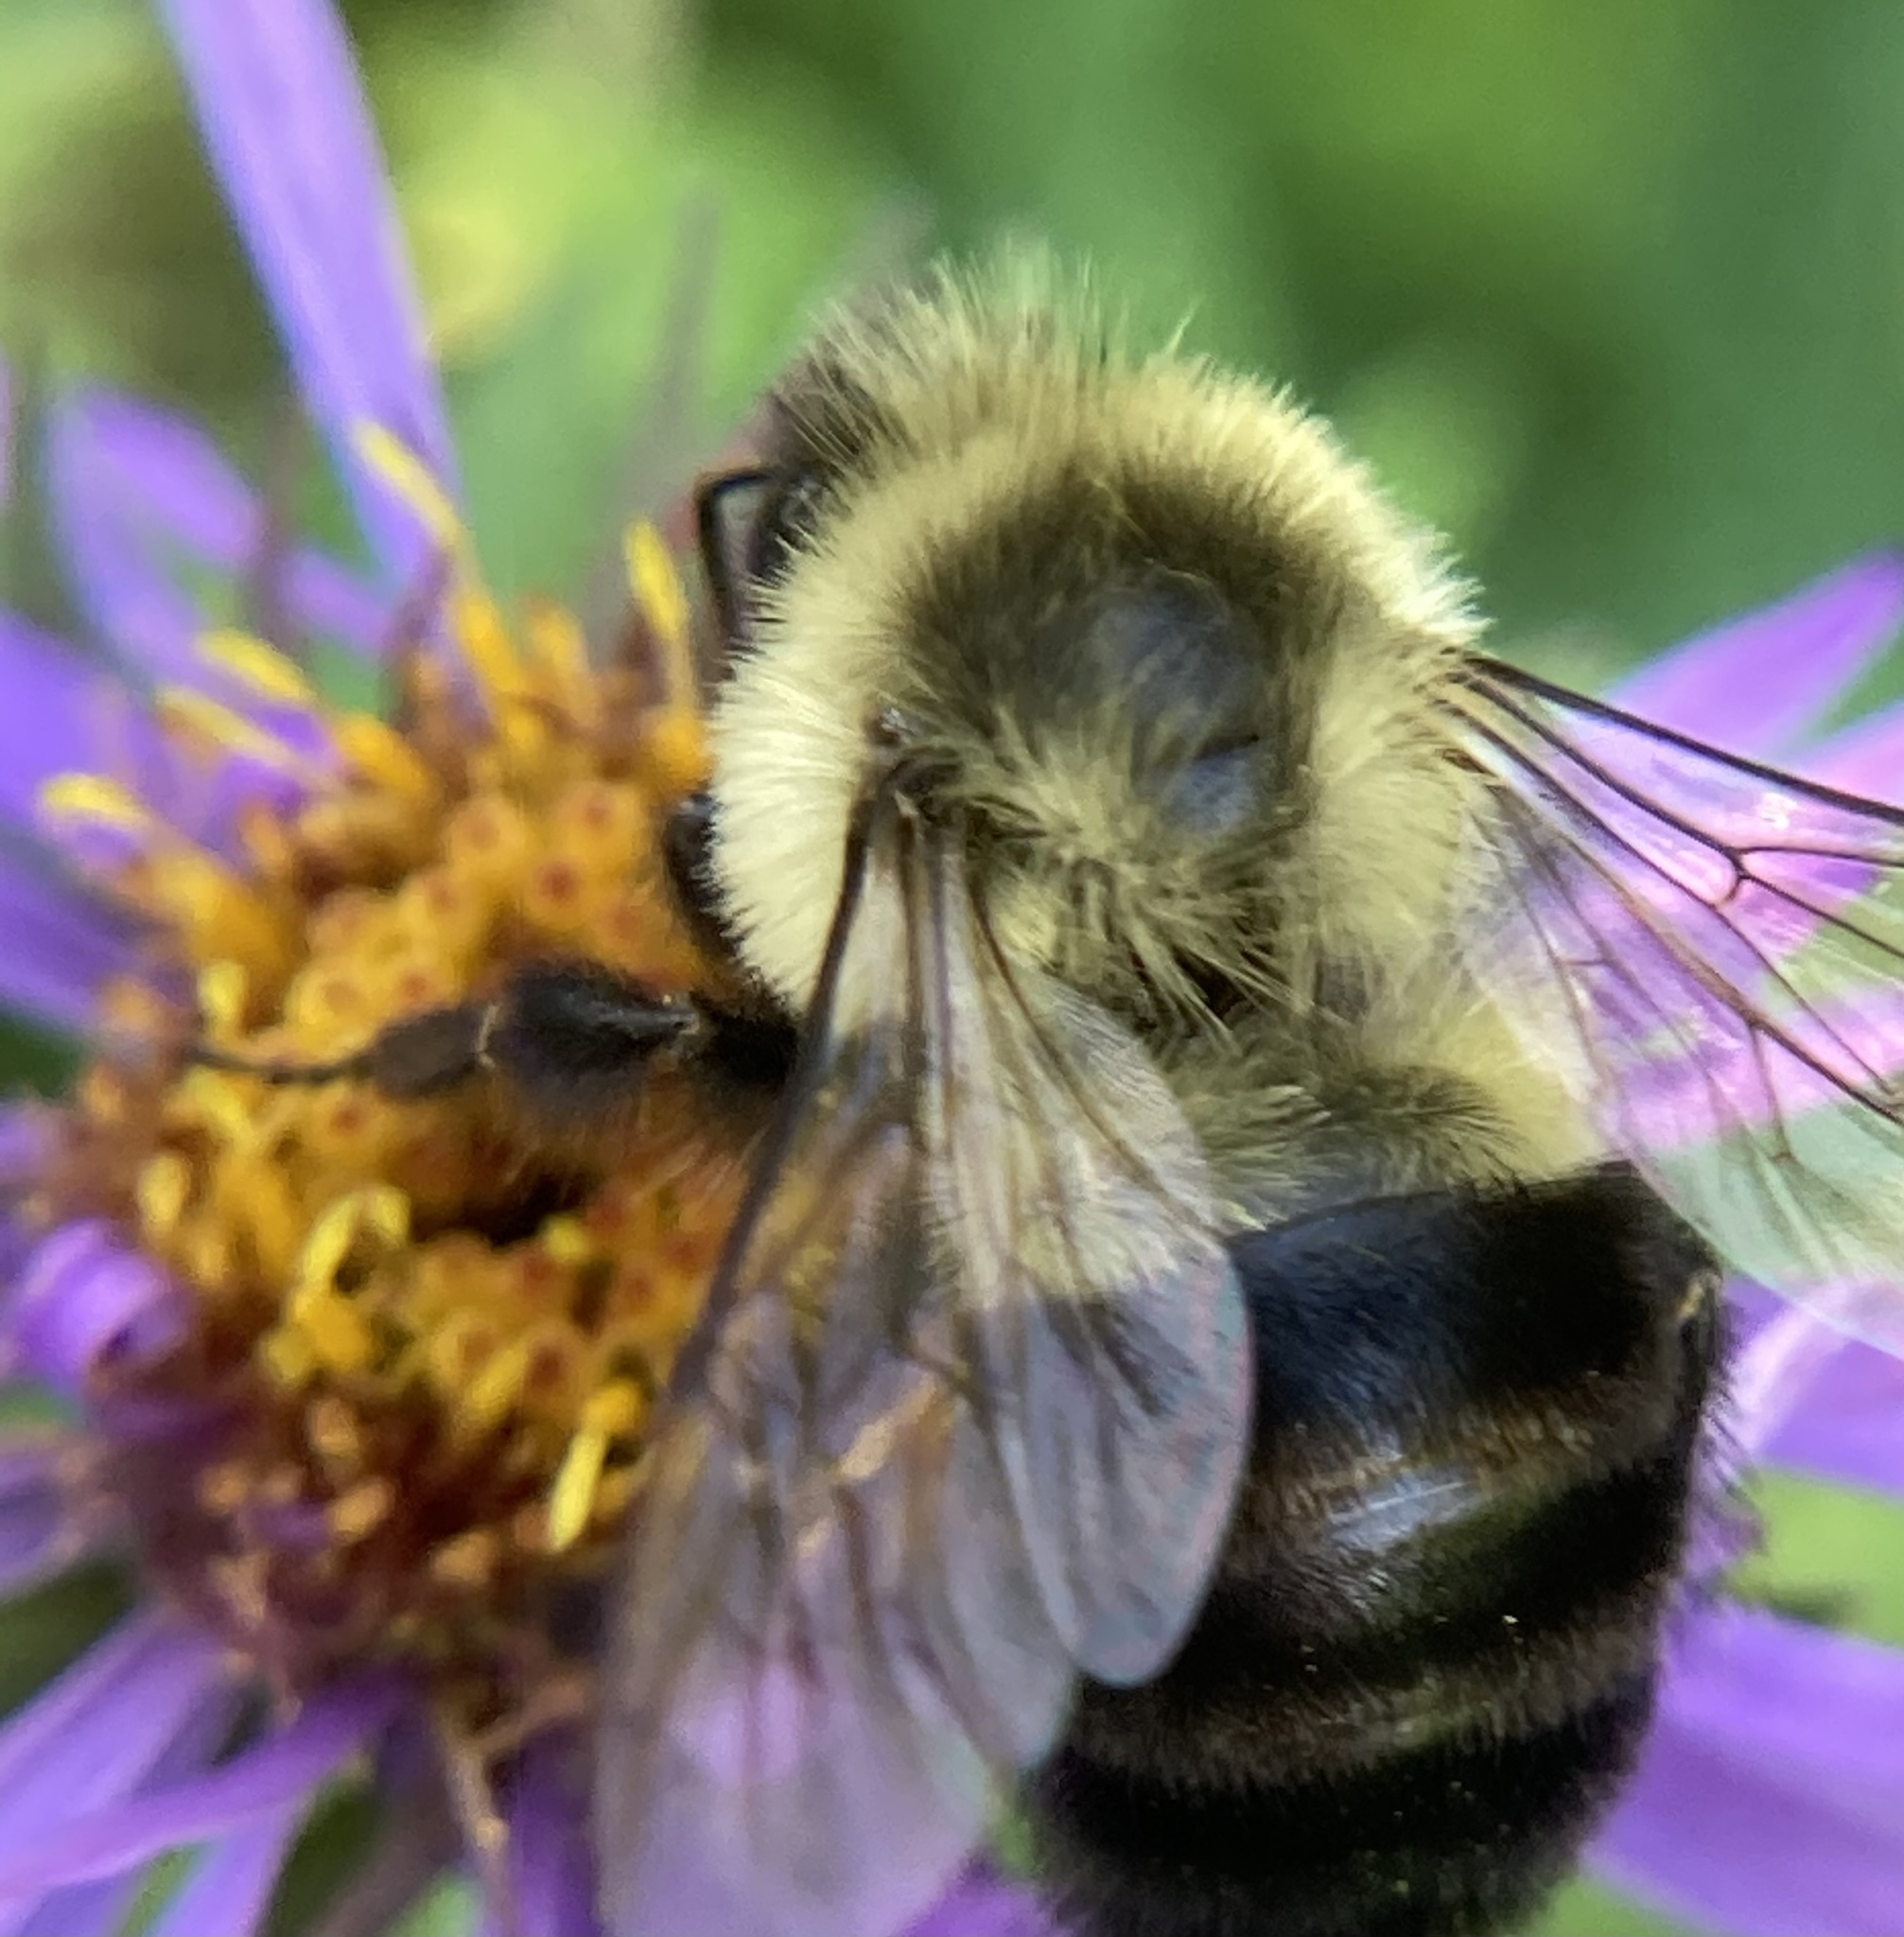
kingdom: Animalia
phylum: Arthropoda
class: Insecta
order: Hymenoptera
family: Apidae
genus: Bombus
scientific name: Bombus impatiens
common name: Common eastern bumble bee
